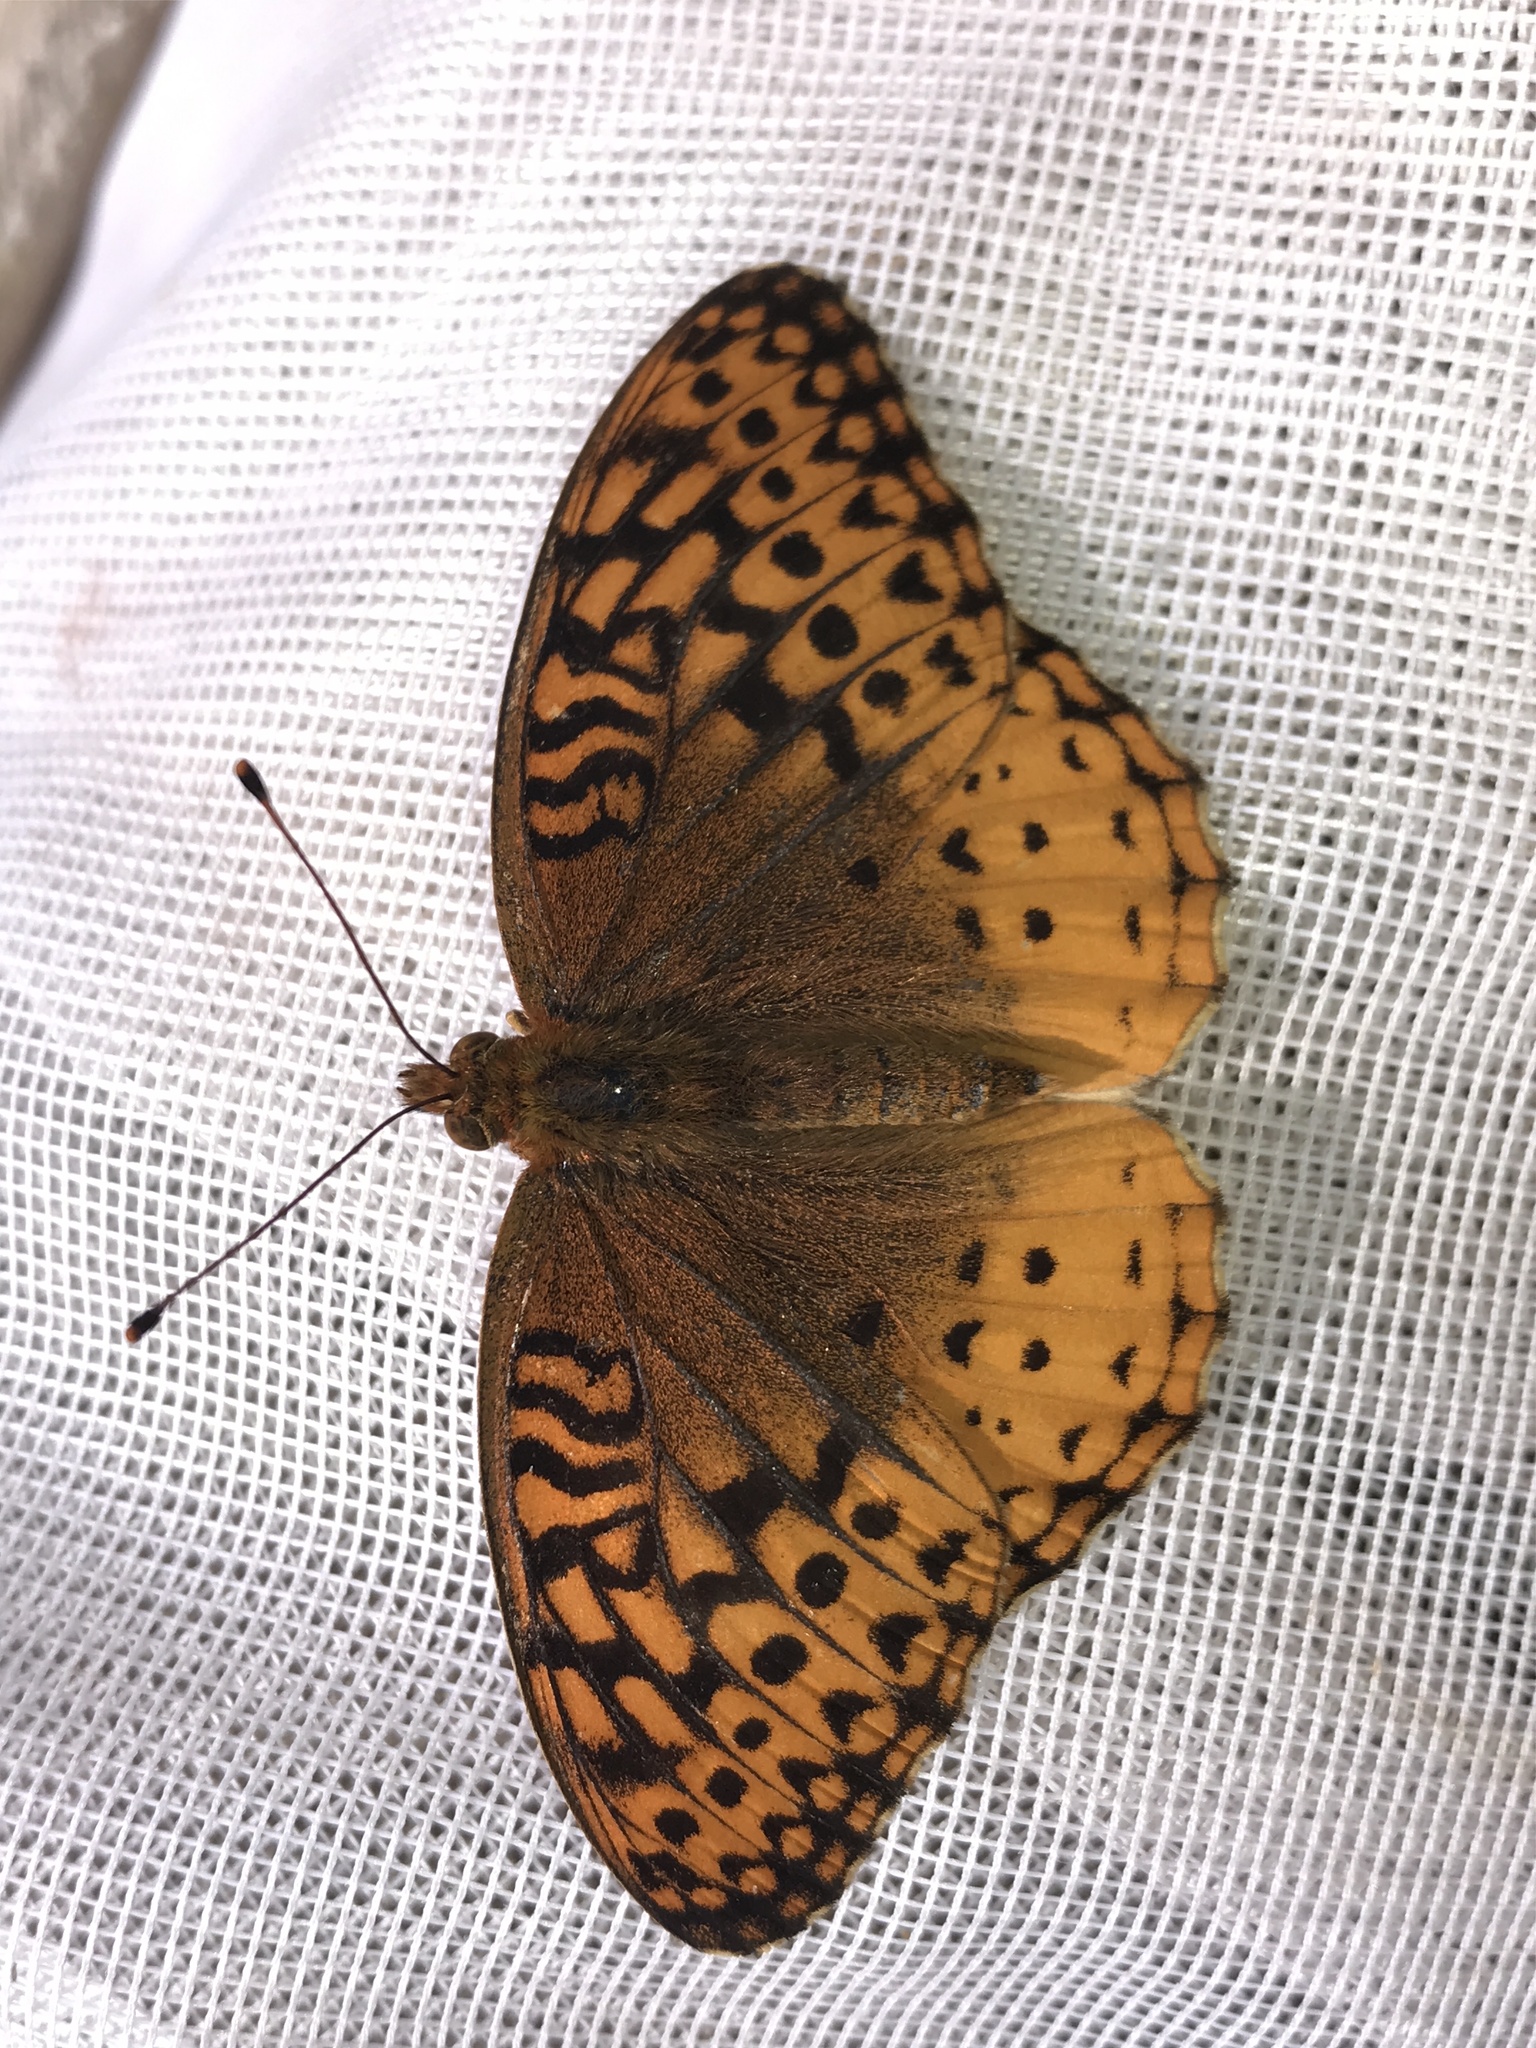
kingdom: Animalia
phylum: Arthropoda
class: Insecta
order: Lepidoptera
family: Nymphalidae
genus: Speyeria
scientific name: Speyeria cybele
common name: Great spangled fritillary
